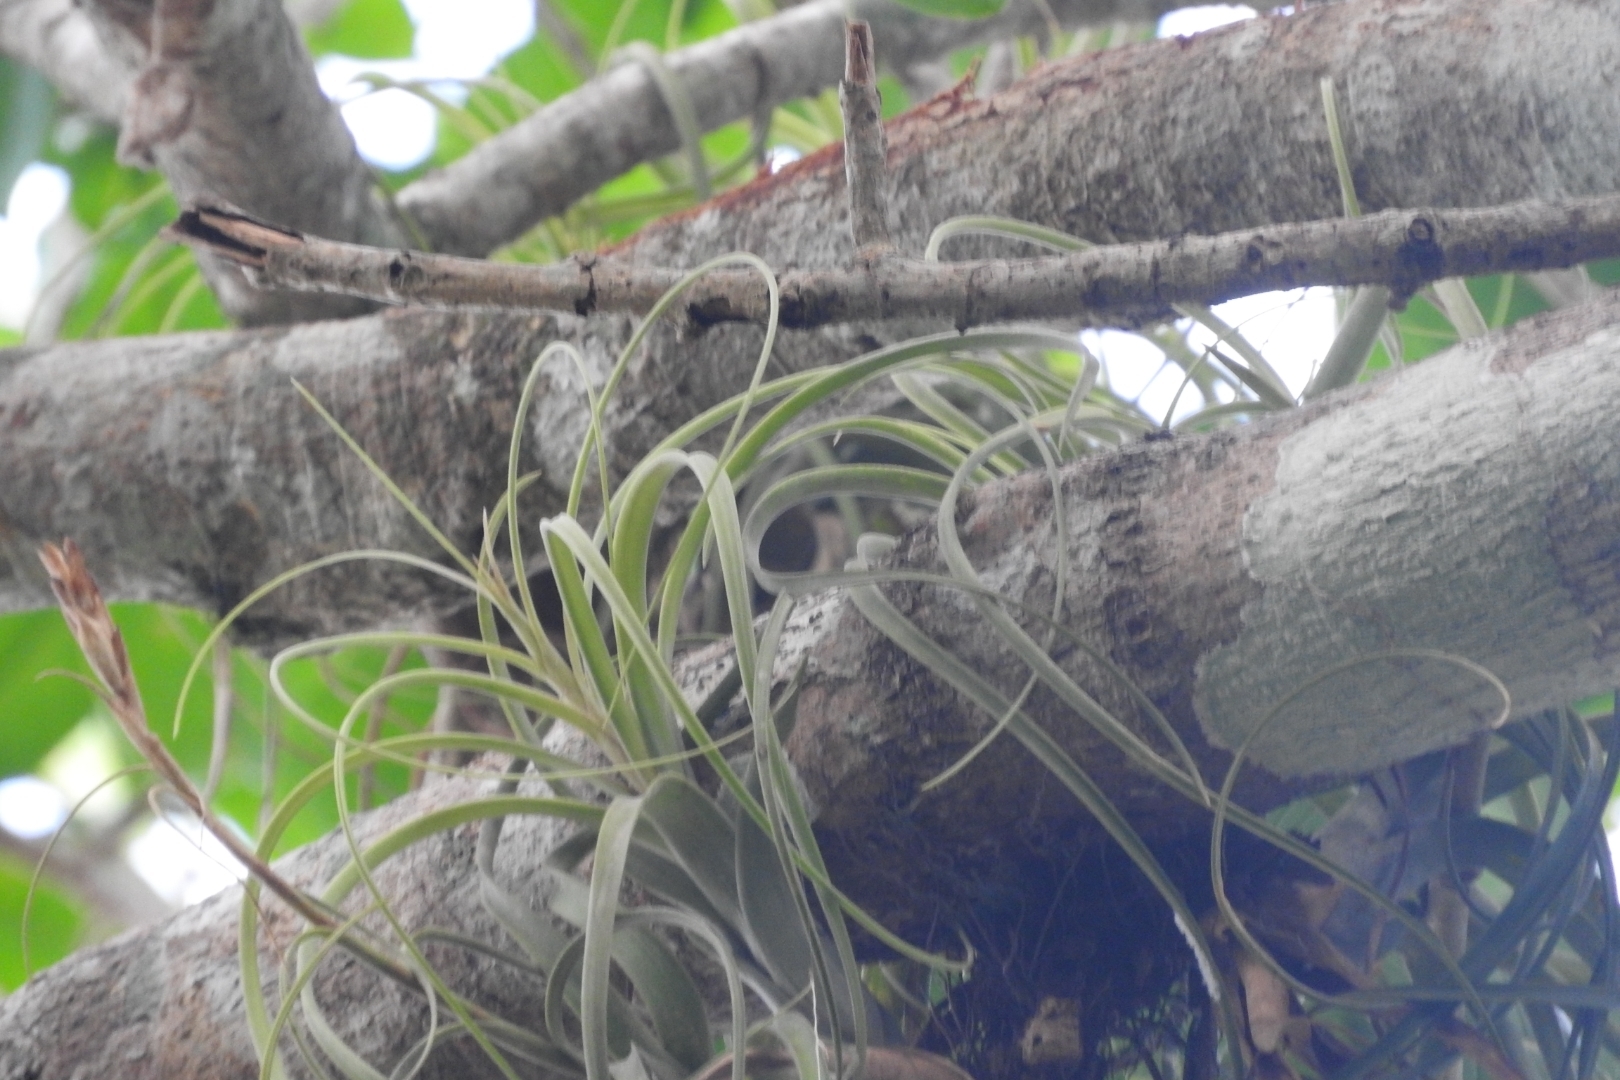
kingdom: Plantae
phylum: Tracheophyta
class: Liliopsida
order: Poales
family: Bromeliaceae
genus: Tillandsia
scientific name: Tillandsia balbisiana
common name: Northern needleleaf
